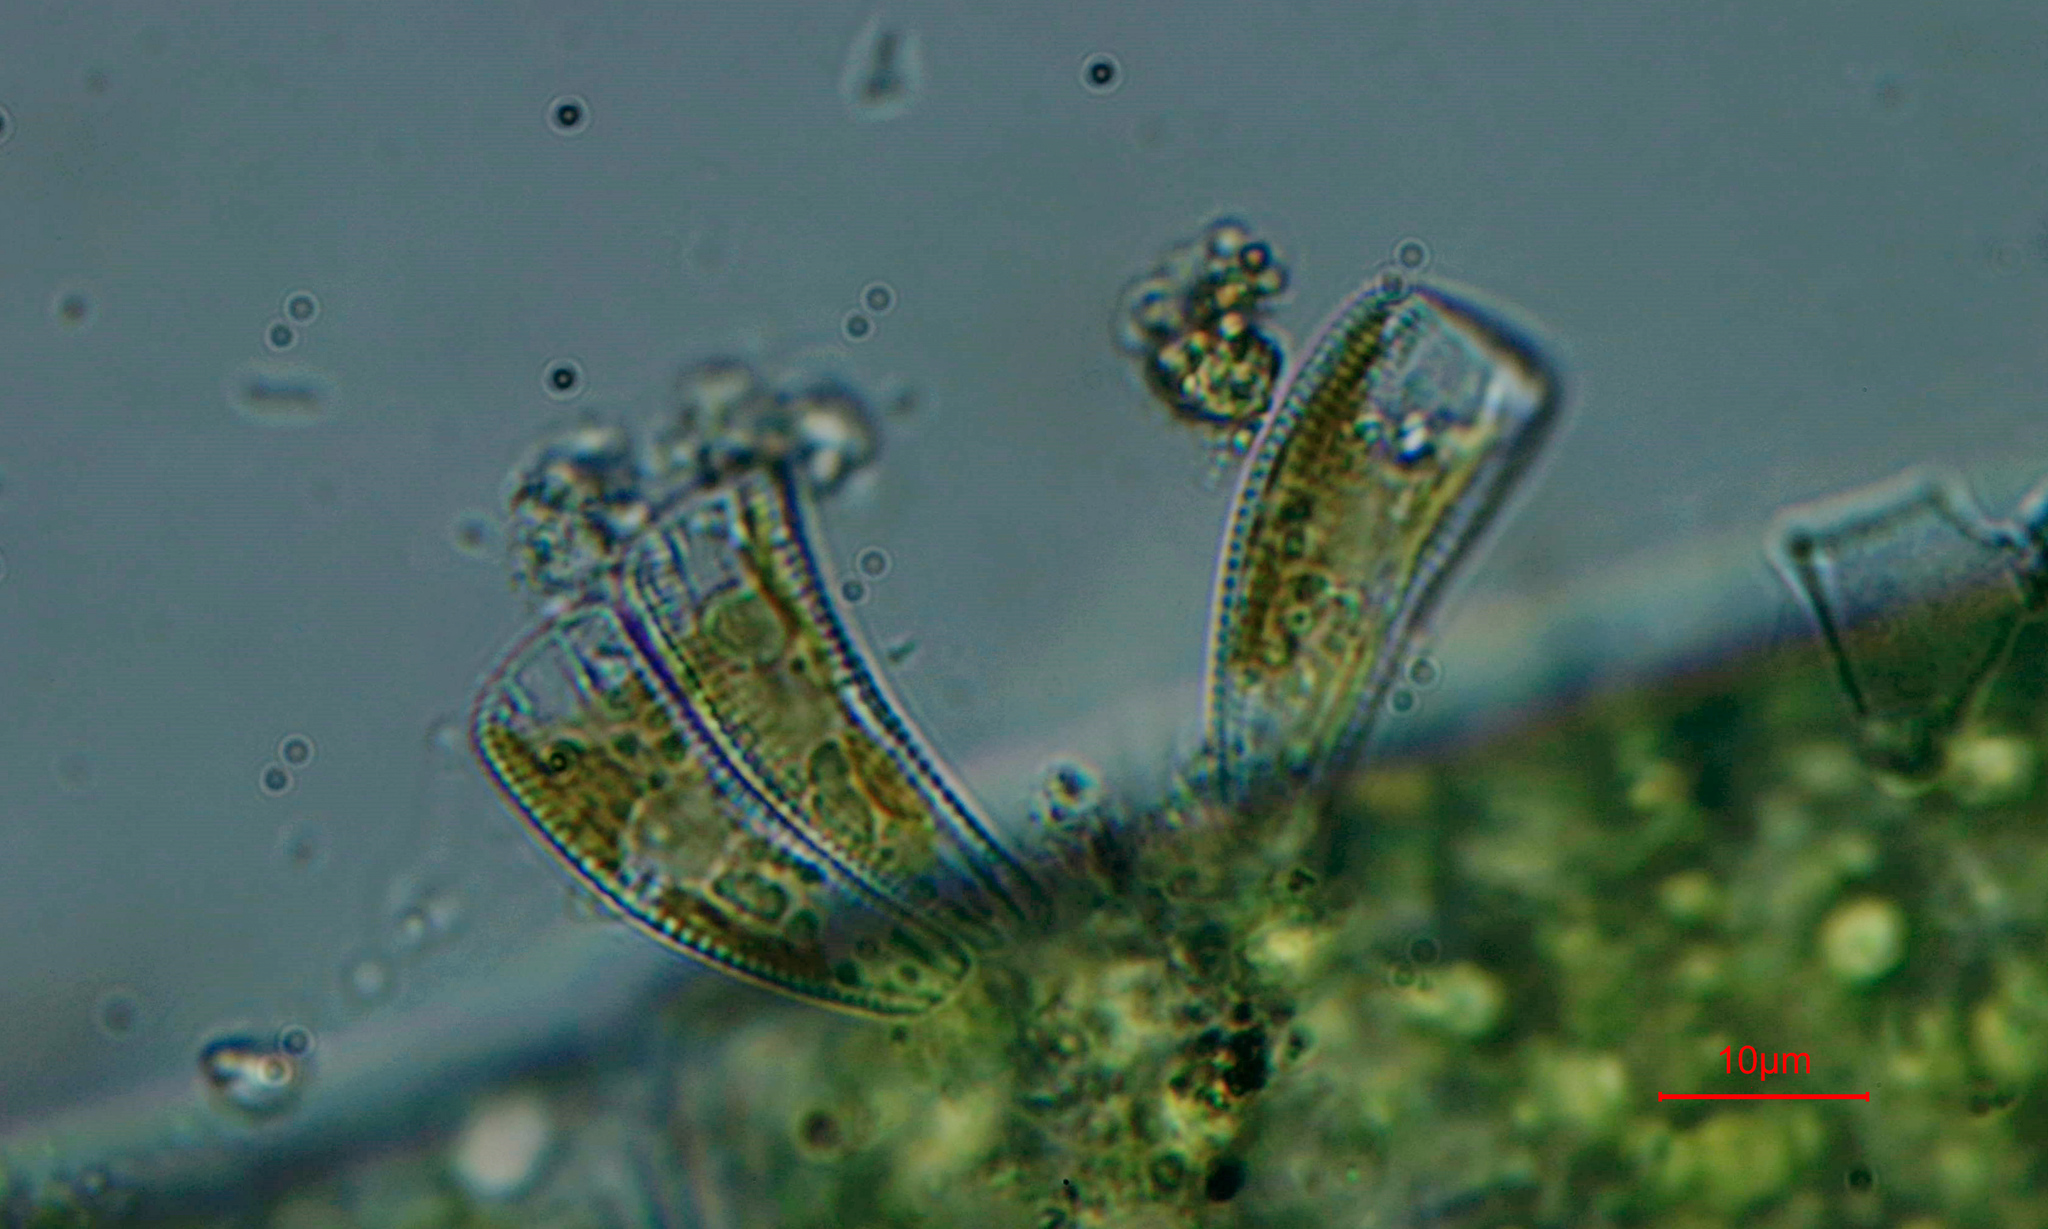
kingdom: Chromista
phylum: Ochrophyta
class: Bacillariophyceae
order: Cymbellales
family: Rhoicospheniaceae
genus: Rhoicosphenia
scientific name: Rhoicosphenia abbreviata
